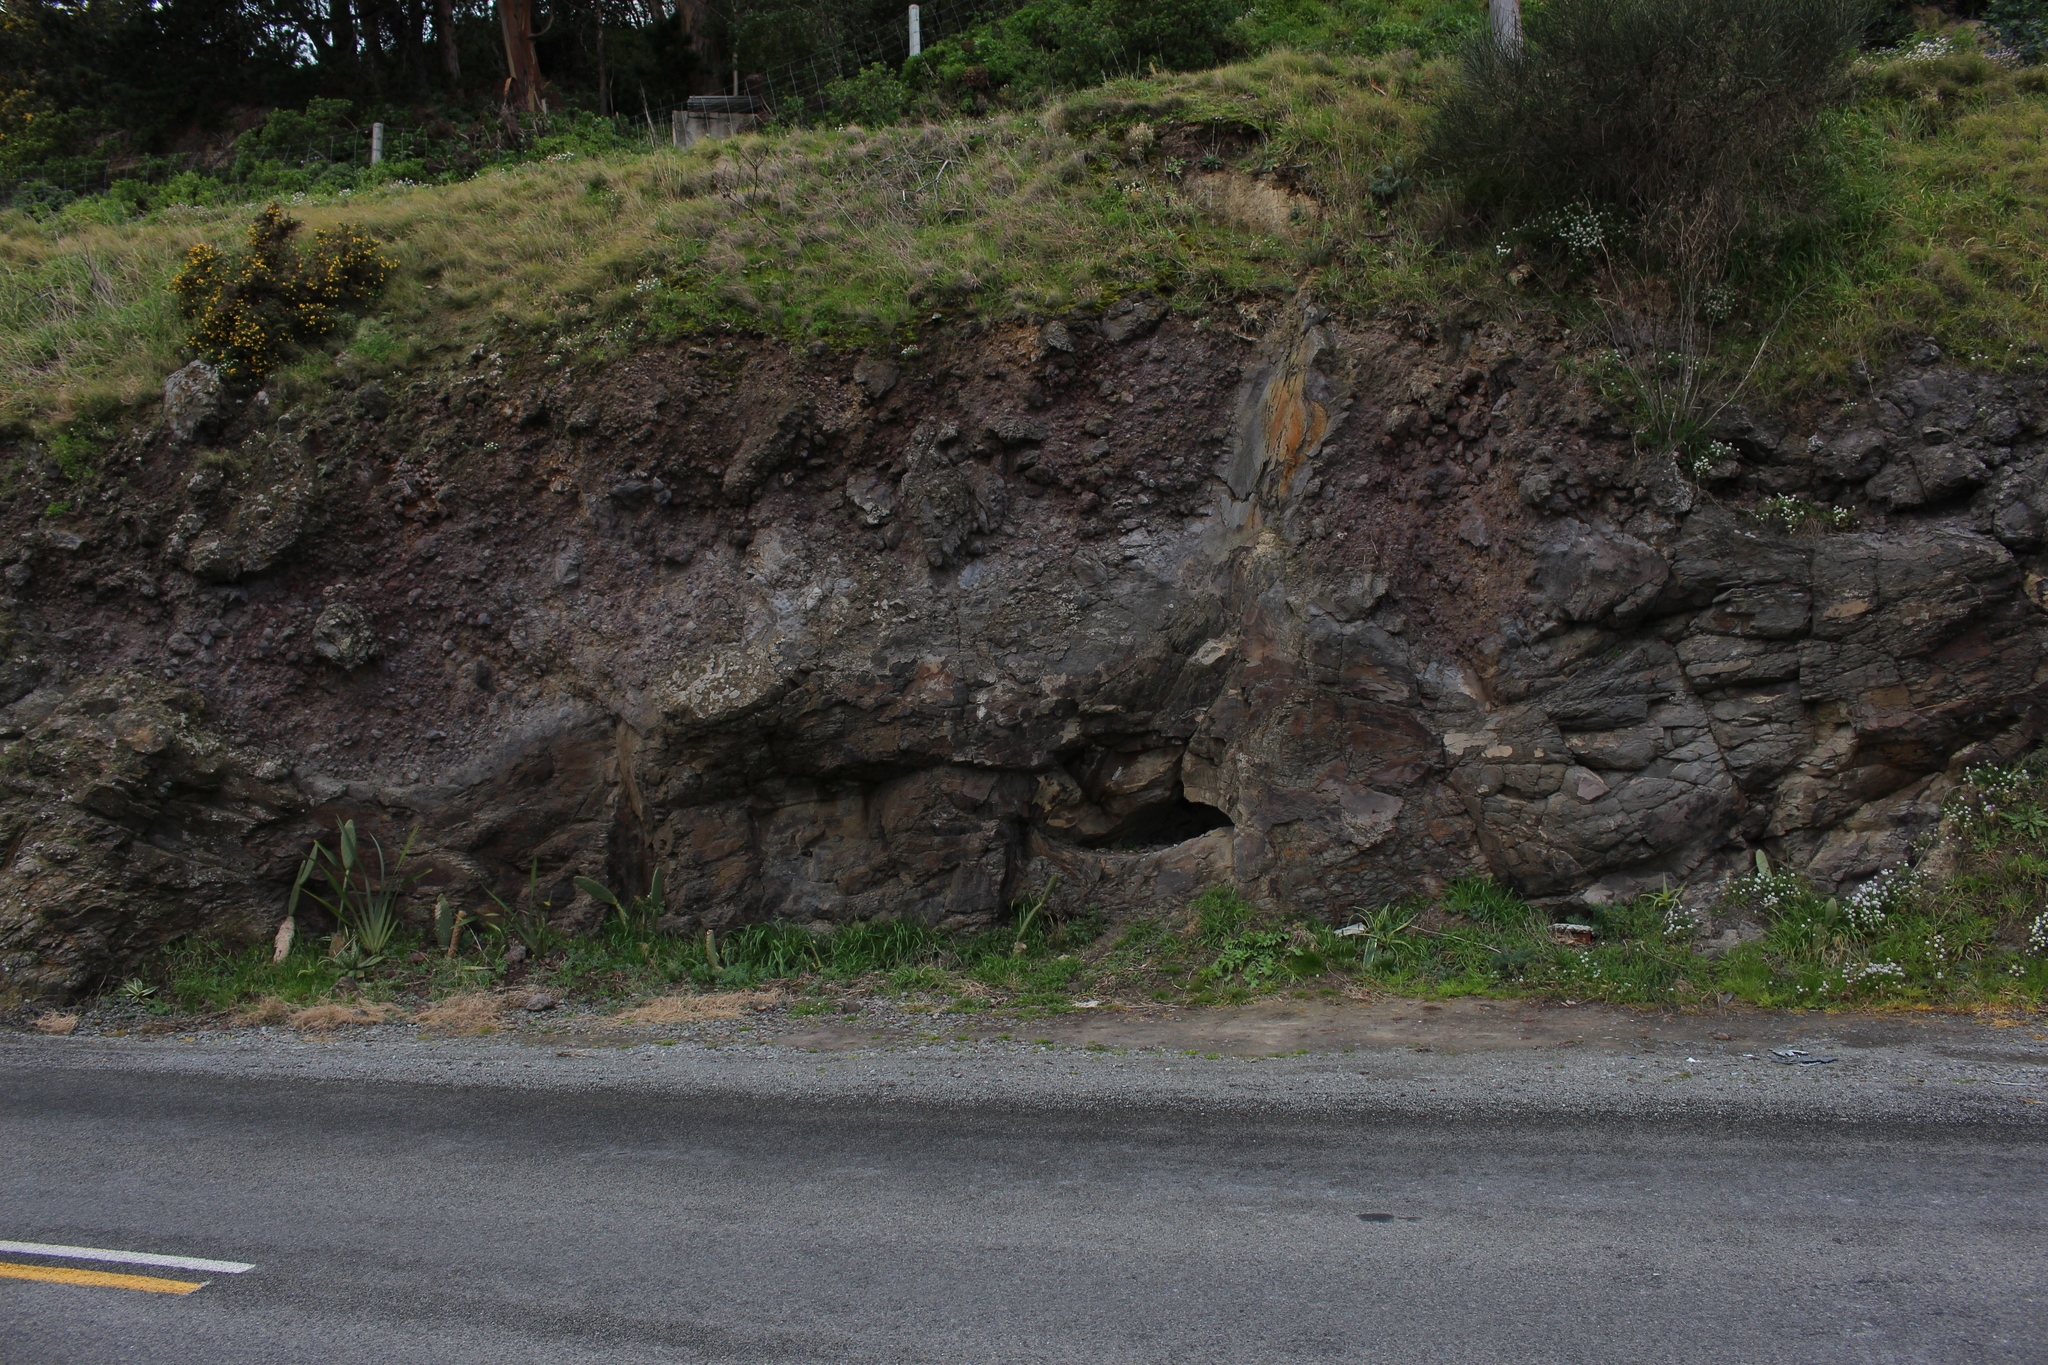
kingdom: Plantae
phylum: Tracheophyta
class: Magnoliopsida
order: Caryophyllales
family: Cactaceae
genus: Opuntia
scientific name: Opuntia ficus-indica
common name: Barbary fig
